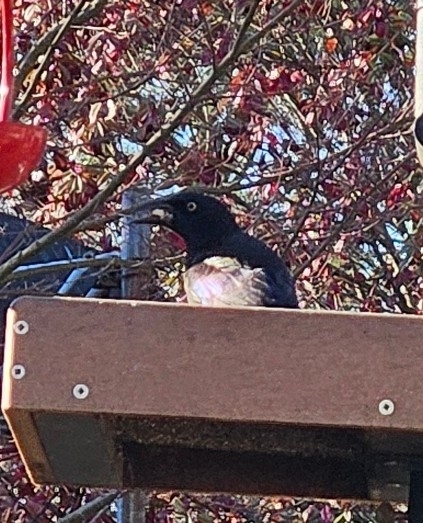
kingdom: Animalia
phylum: Chordata
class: Aves
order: Passeriformes
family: Icteridae
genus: Quiscalus
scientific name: Quiscalus quiscula
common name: Common grackle
